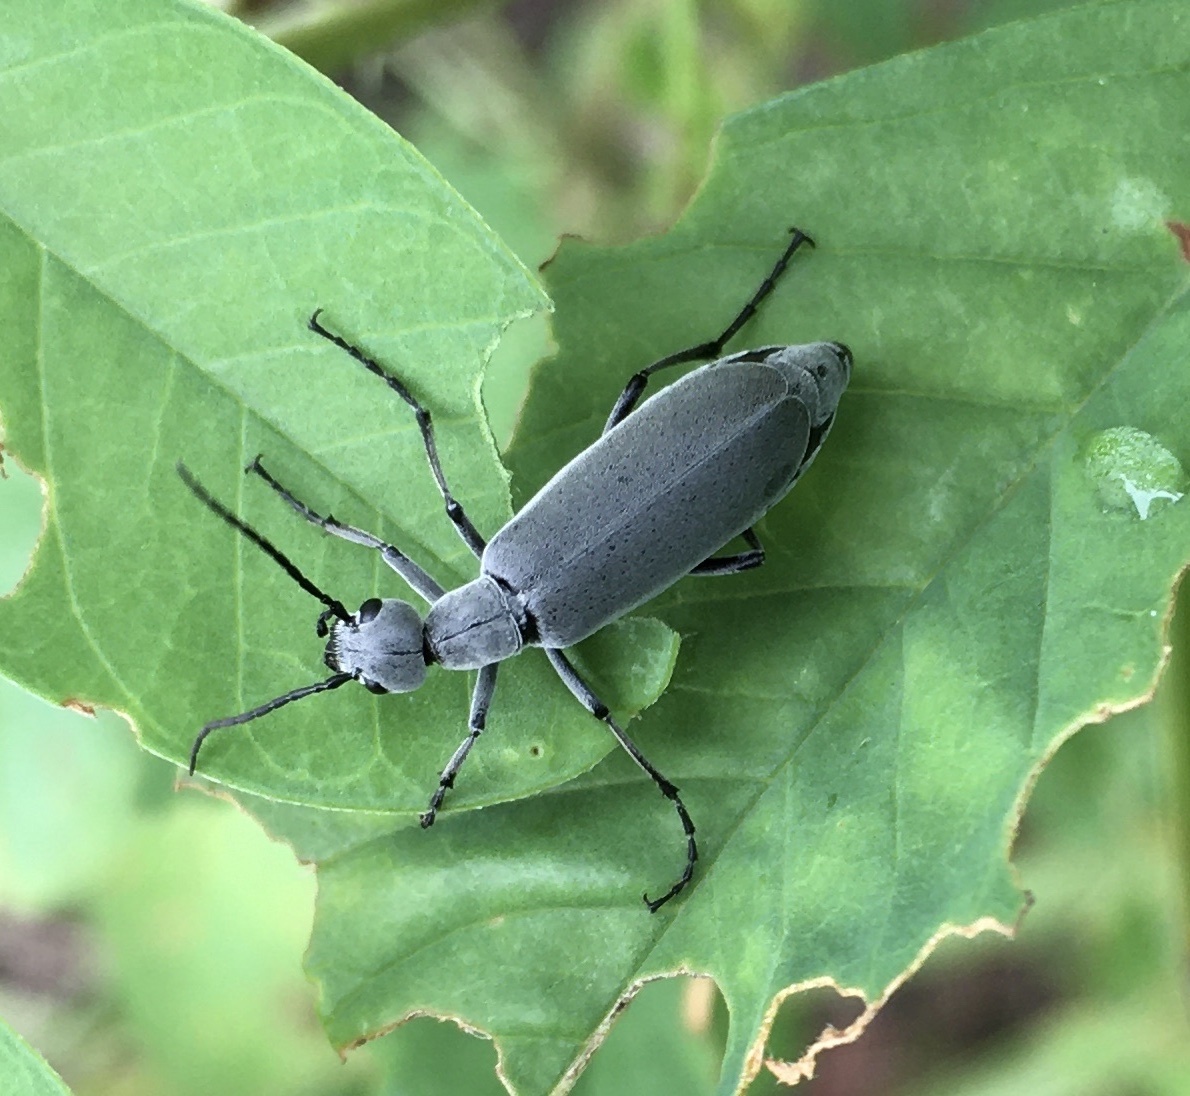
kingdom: Animalia
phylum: Arthropoda
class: Insecta
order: Coleoptera
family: Meloidae
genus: Epicauta
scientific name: Epicauta floridensis
